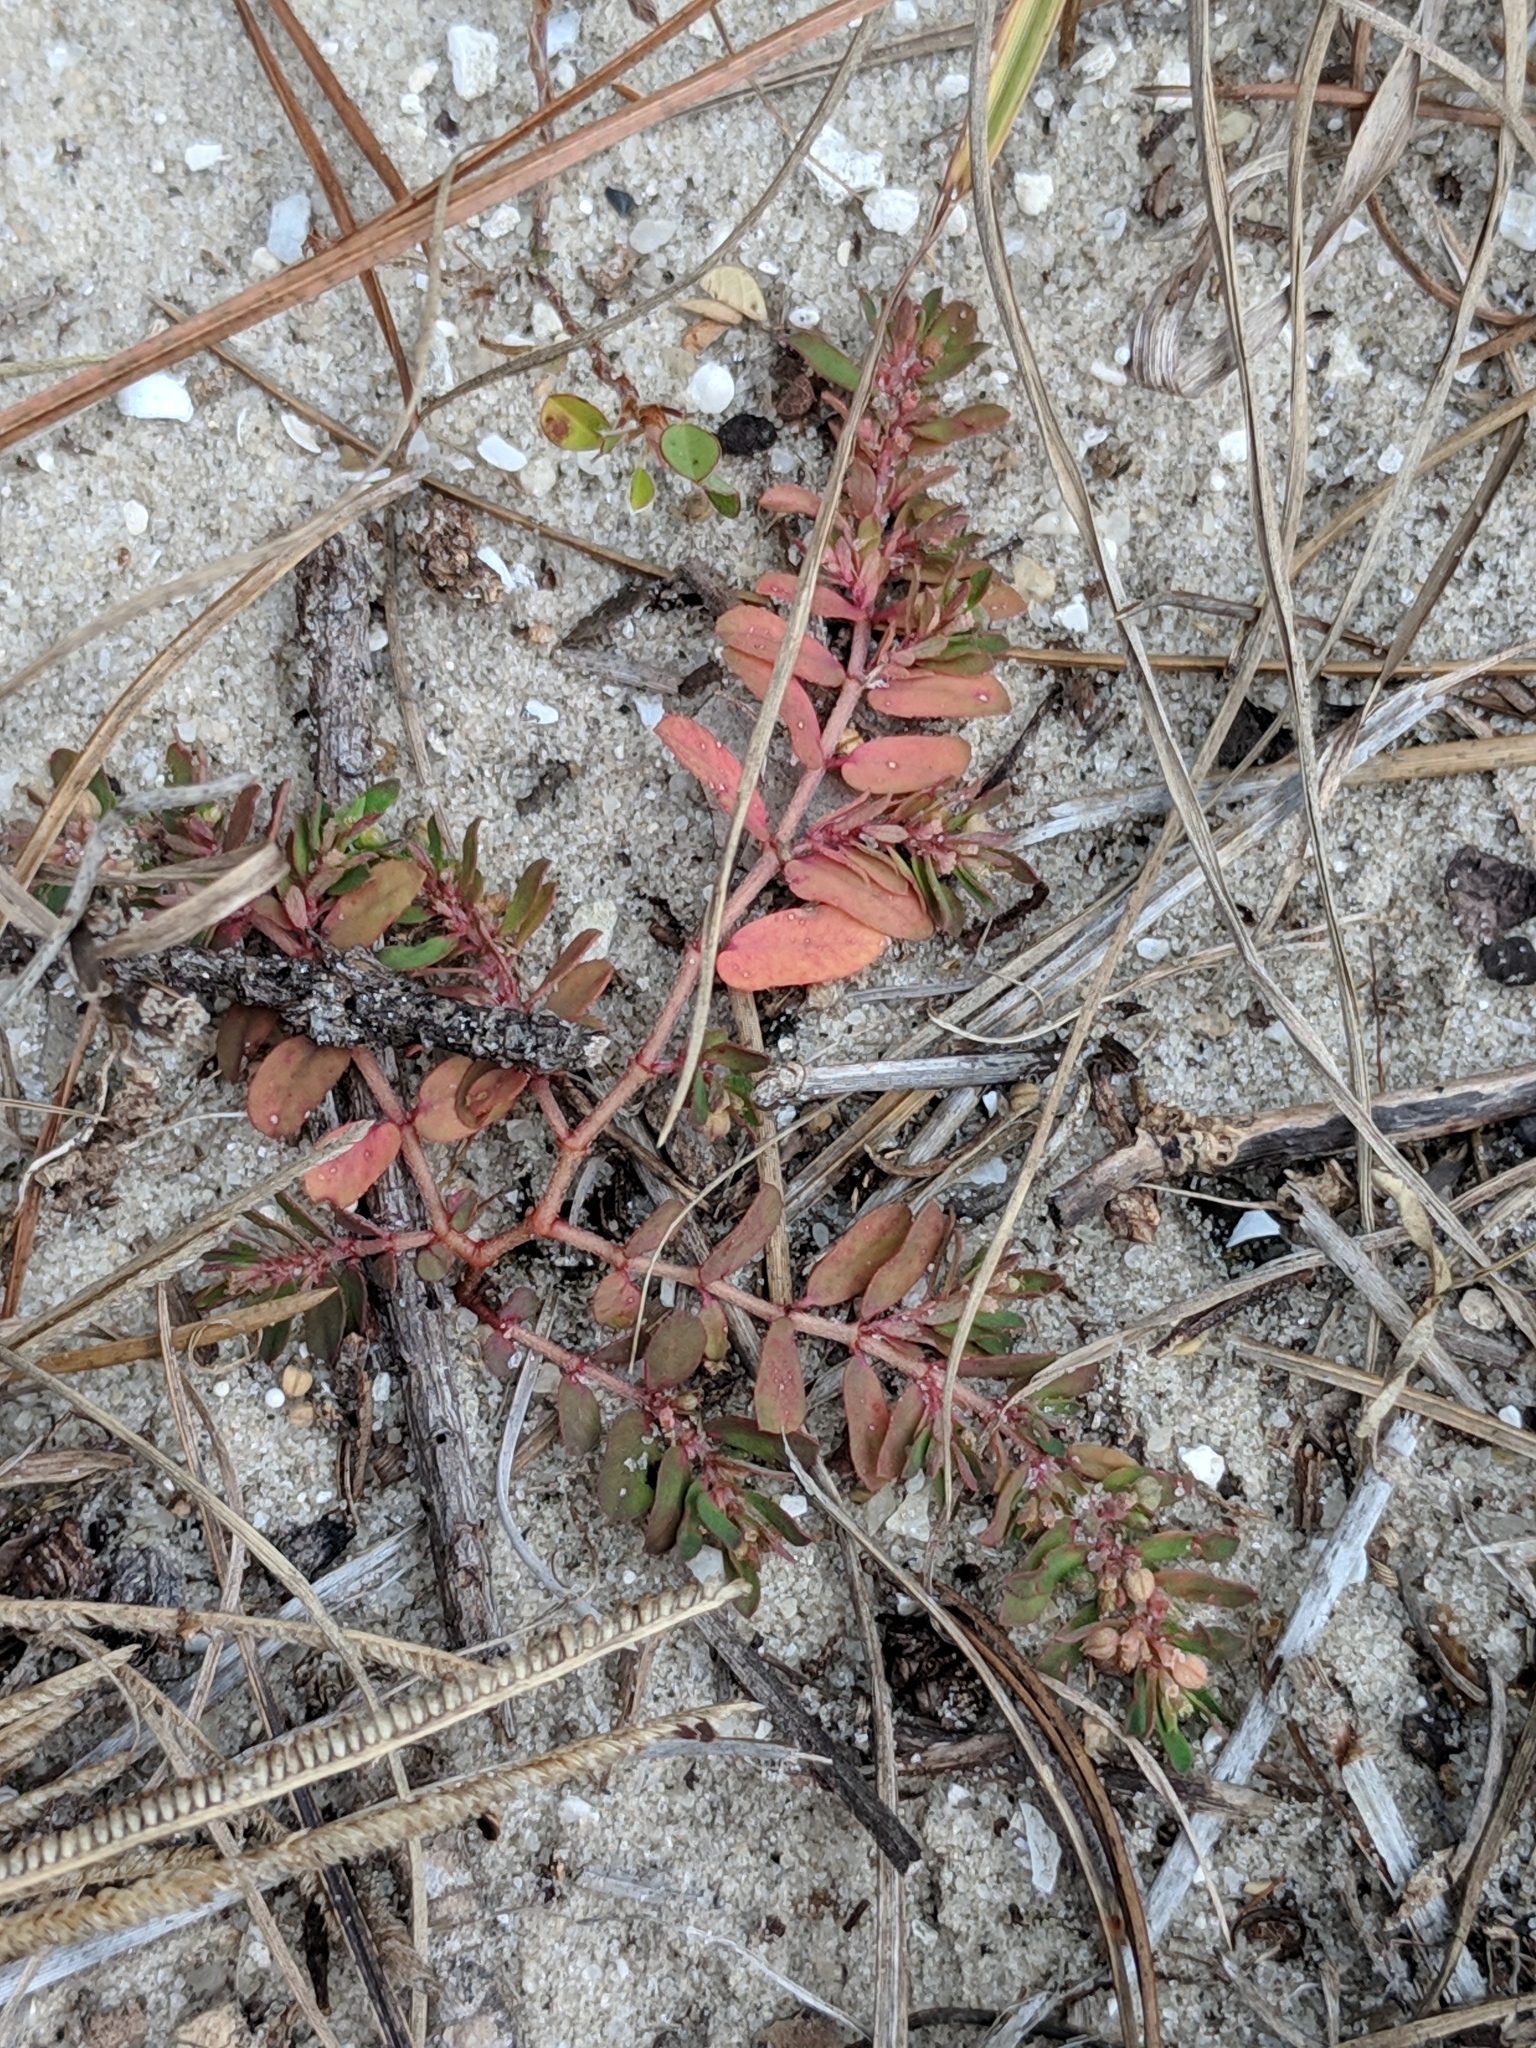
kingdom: Plantae
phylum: Tracheophyta
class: Magnoliopsida
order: Malpighiales
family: Euphorbiaceae
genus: Euphorbia
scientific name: Euphorbia maculata
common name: Spotted spurge
